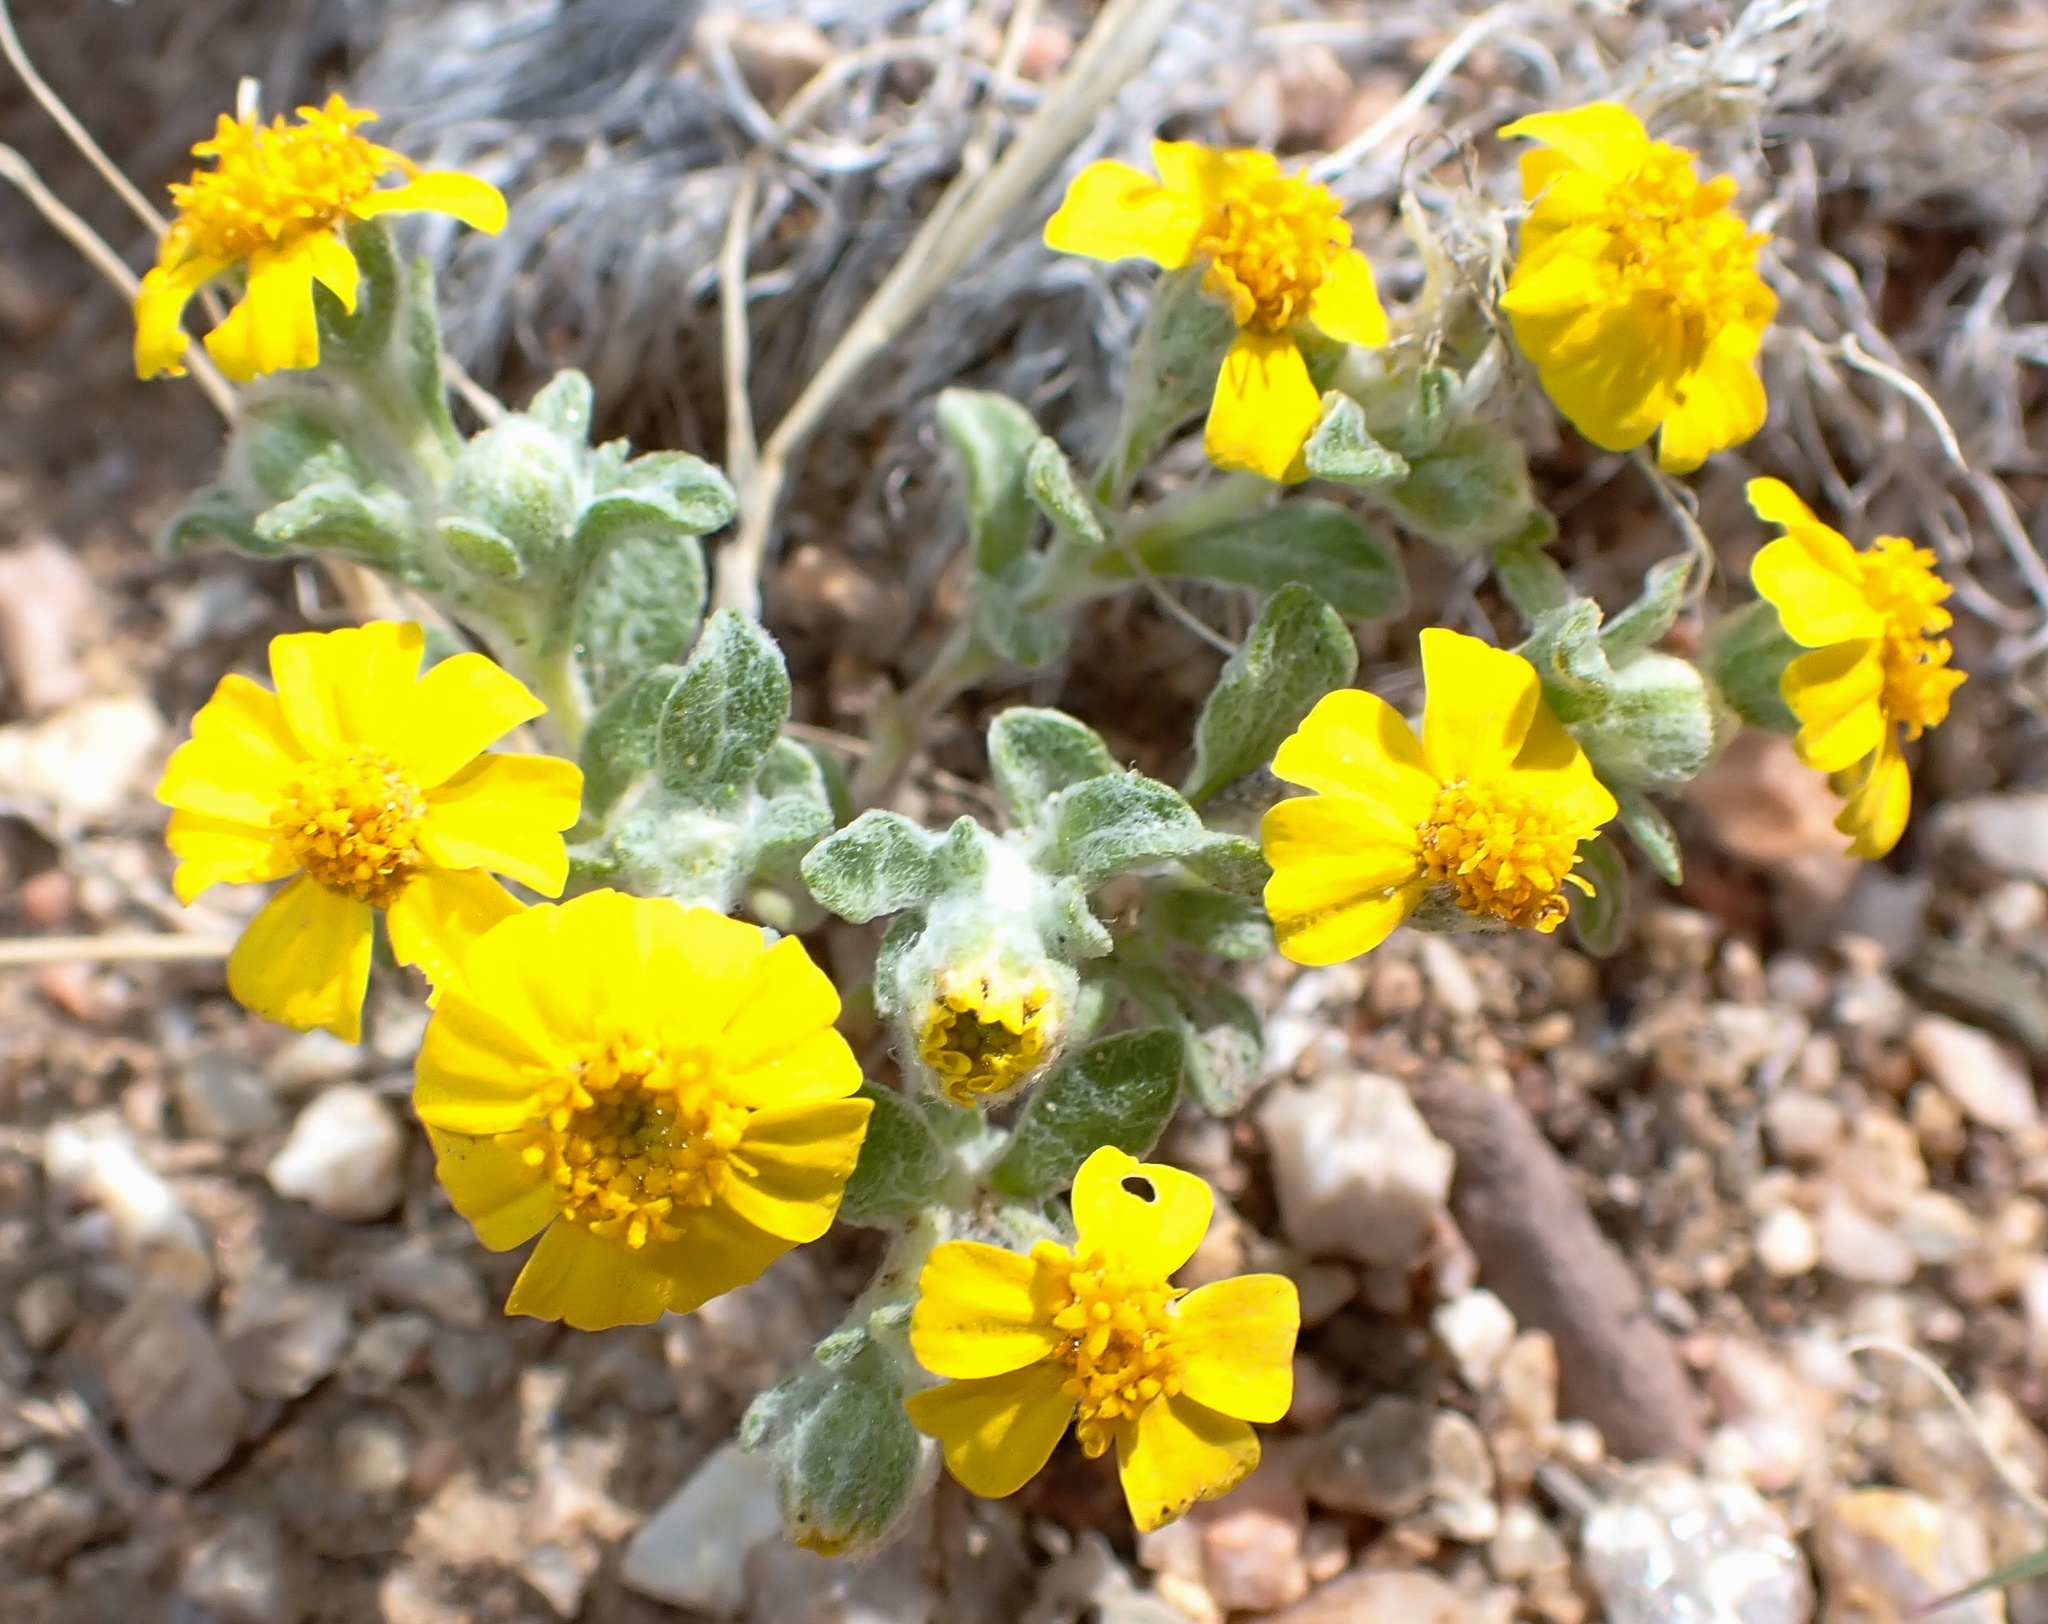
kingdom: Plantae
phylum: Tracheophyta
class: Magnoliopsida
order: Asterales
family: Asteraceae
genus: Eriophyllum
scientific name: Eriophyllum wallacei
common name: Wallace's woolly daisy
